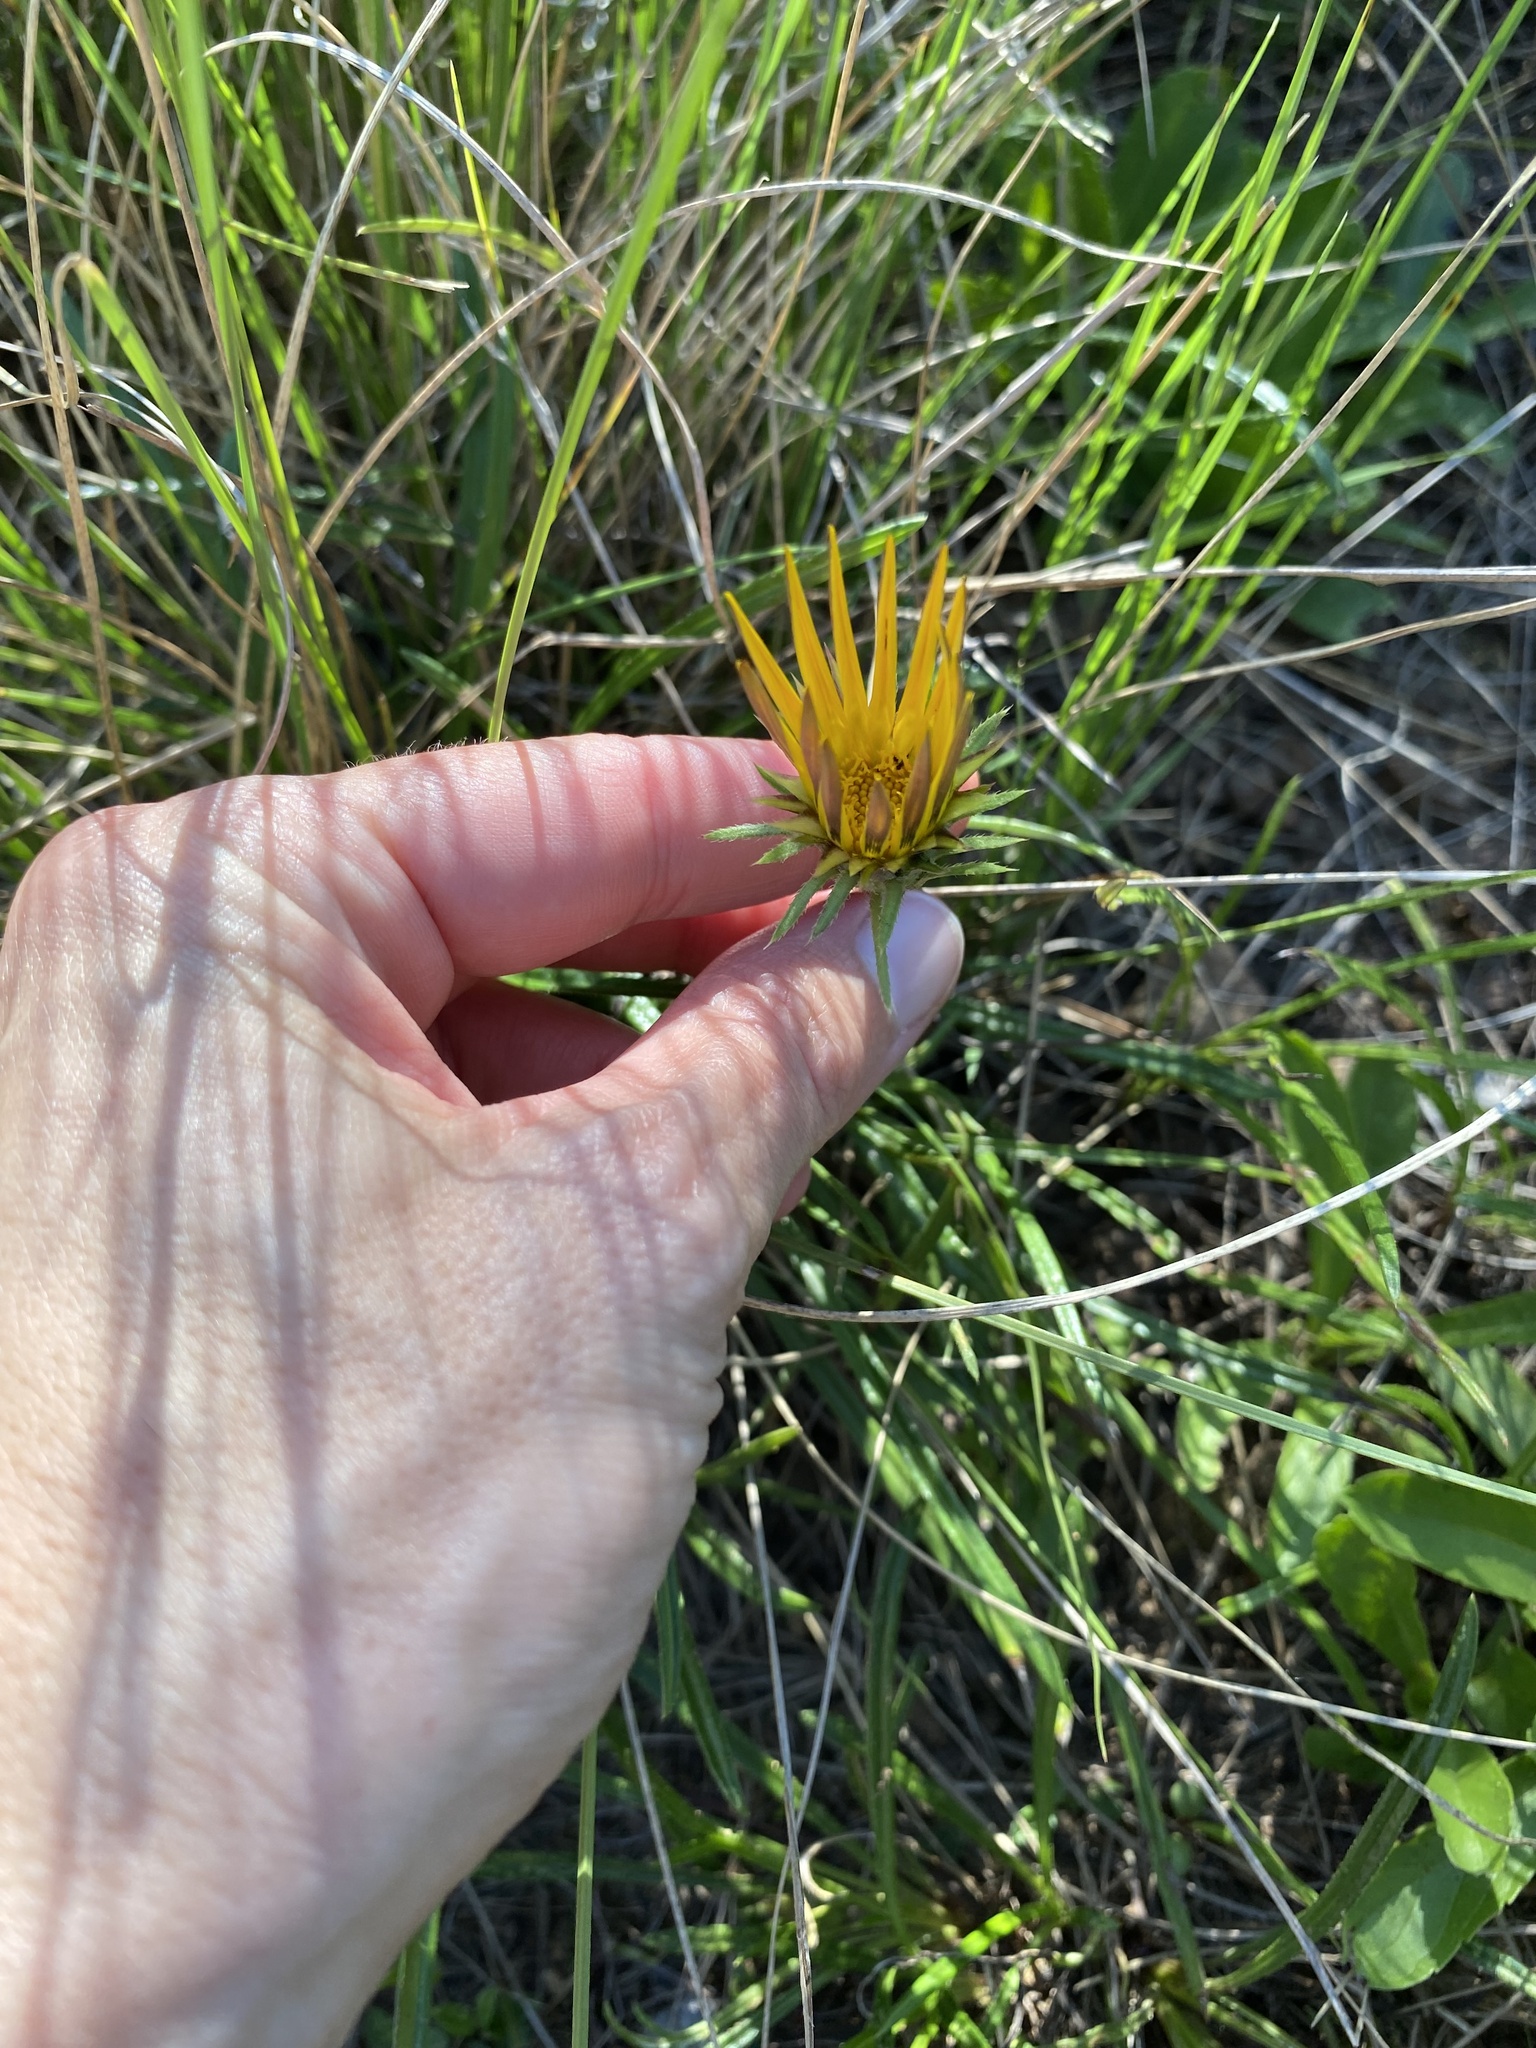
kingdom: Plantae
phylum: Tracheophyta
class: Magnoliopsida
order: Asterales
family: Asteraceae
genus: Gazania
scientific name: Gazania linearis
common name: Treasureflower
